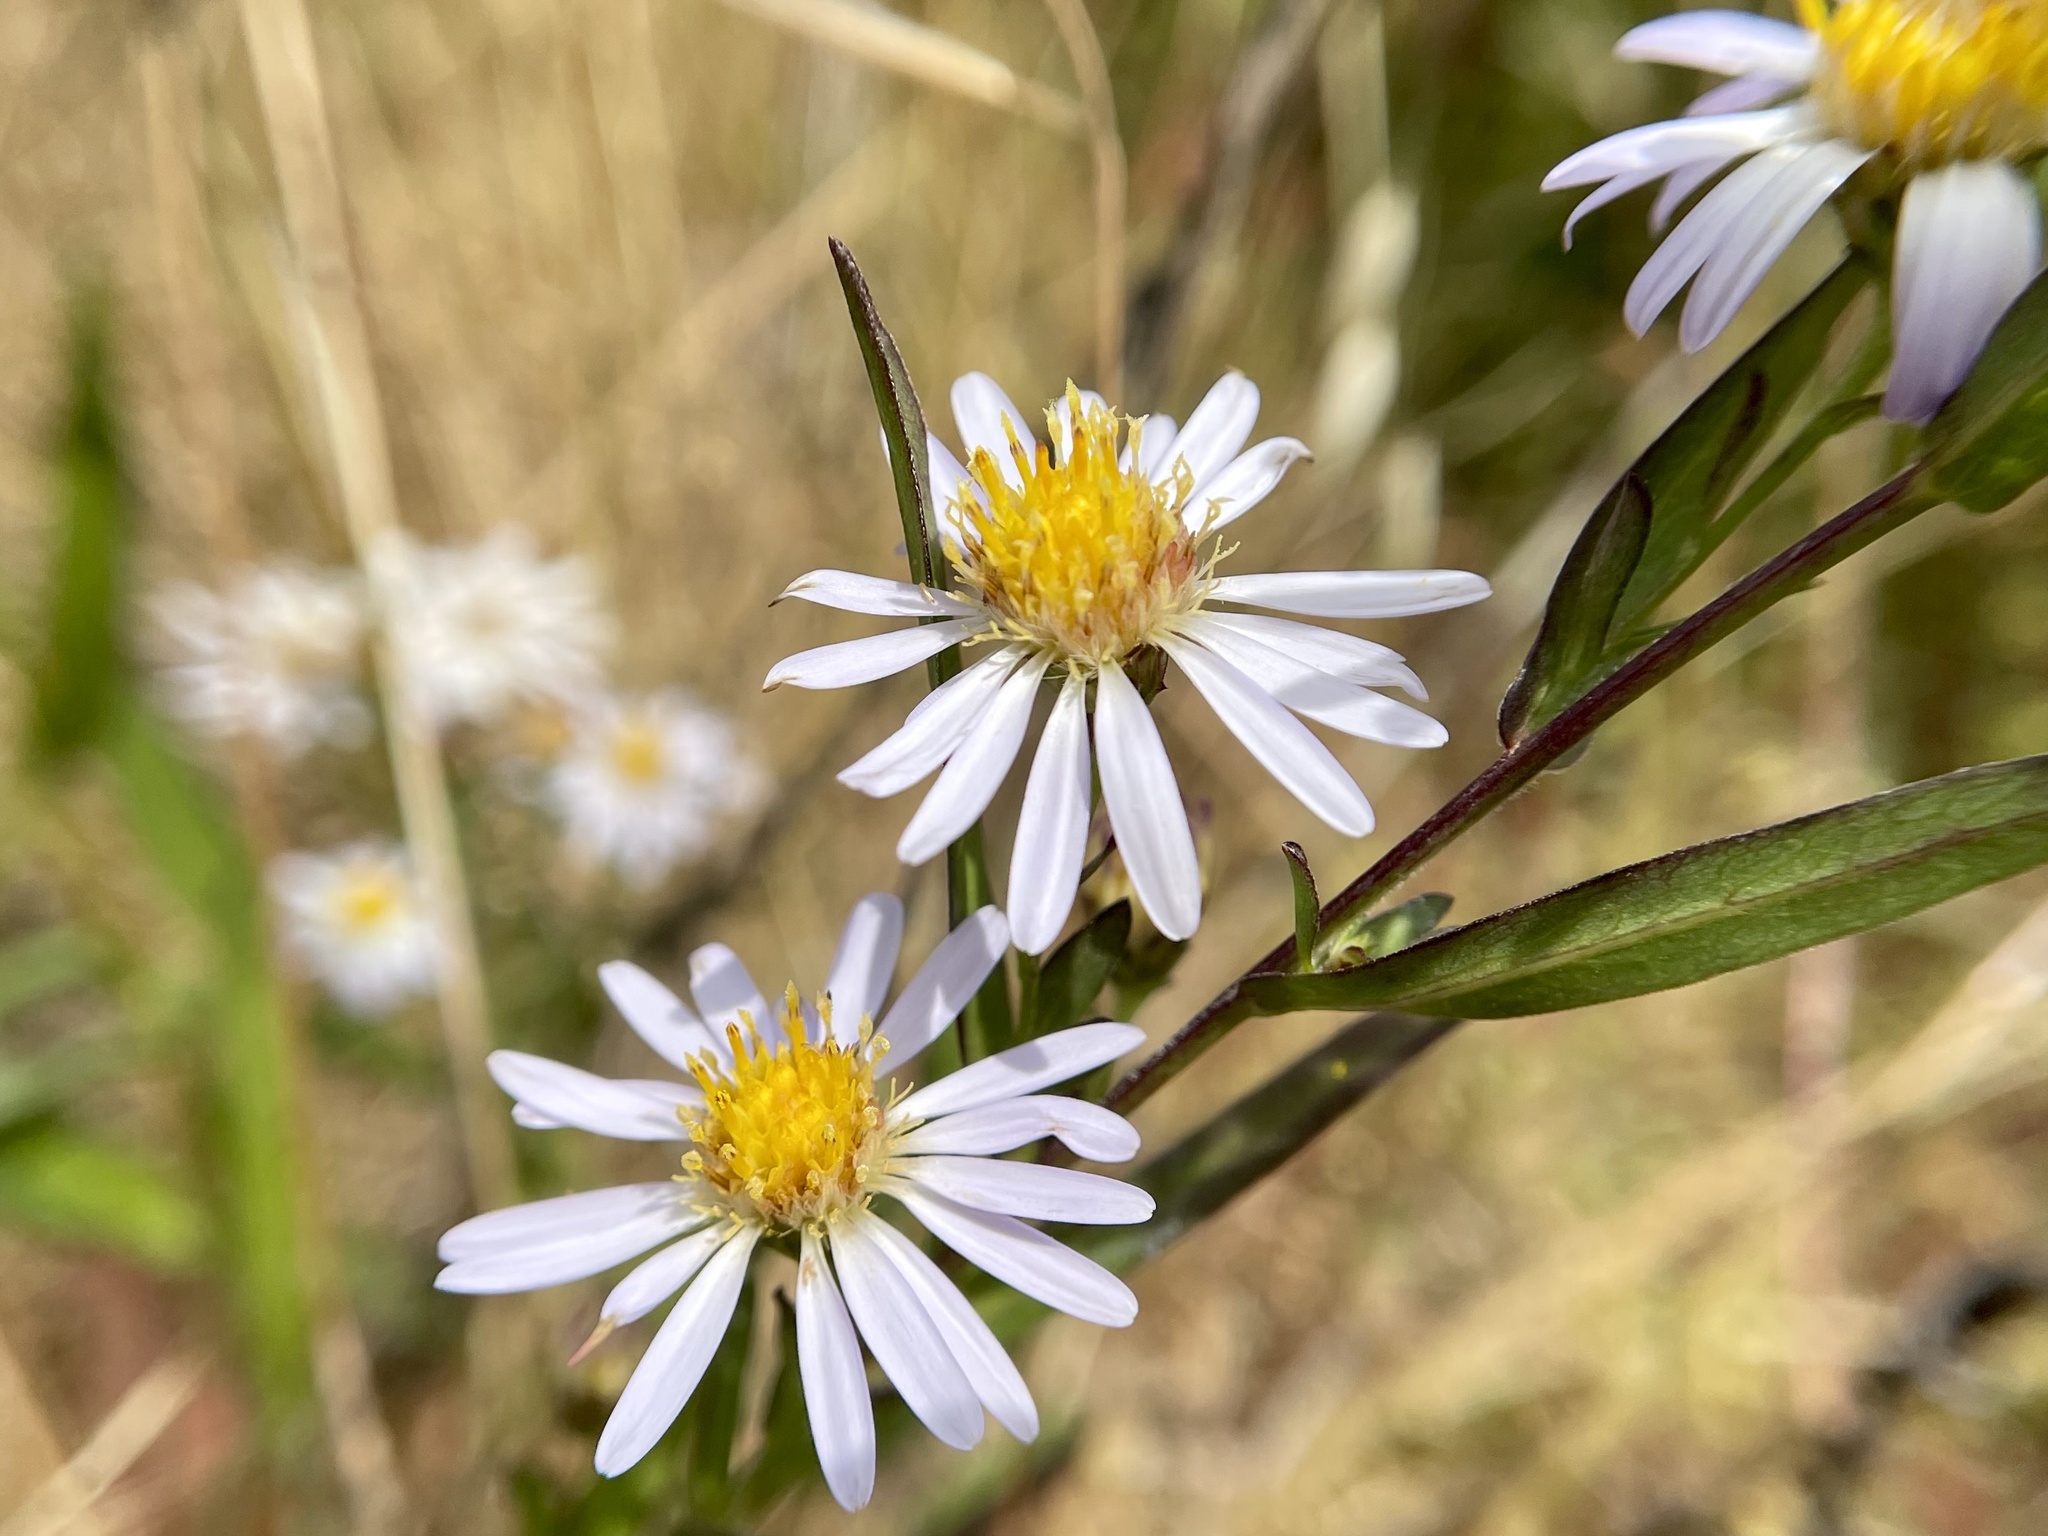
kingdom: Plantae
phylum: Tracheophyta
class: Magnoliopsida
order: Asterales
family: Asteraceae
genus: Symphyotrichum
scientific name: Symphyotrichum chilense
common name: Pacific aster
